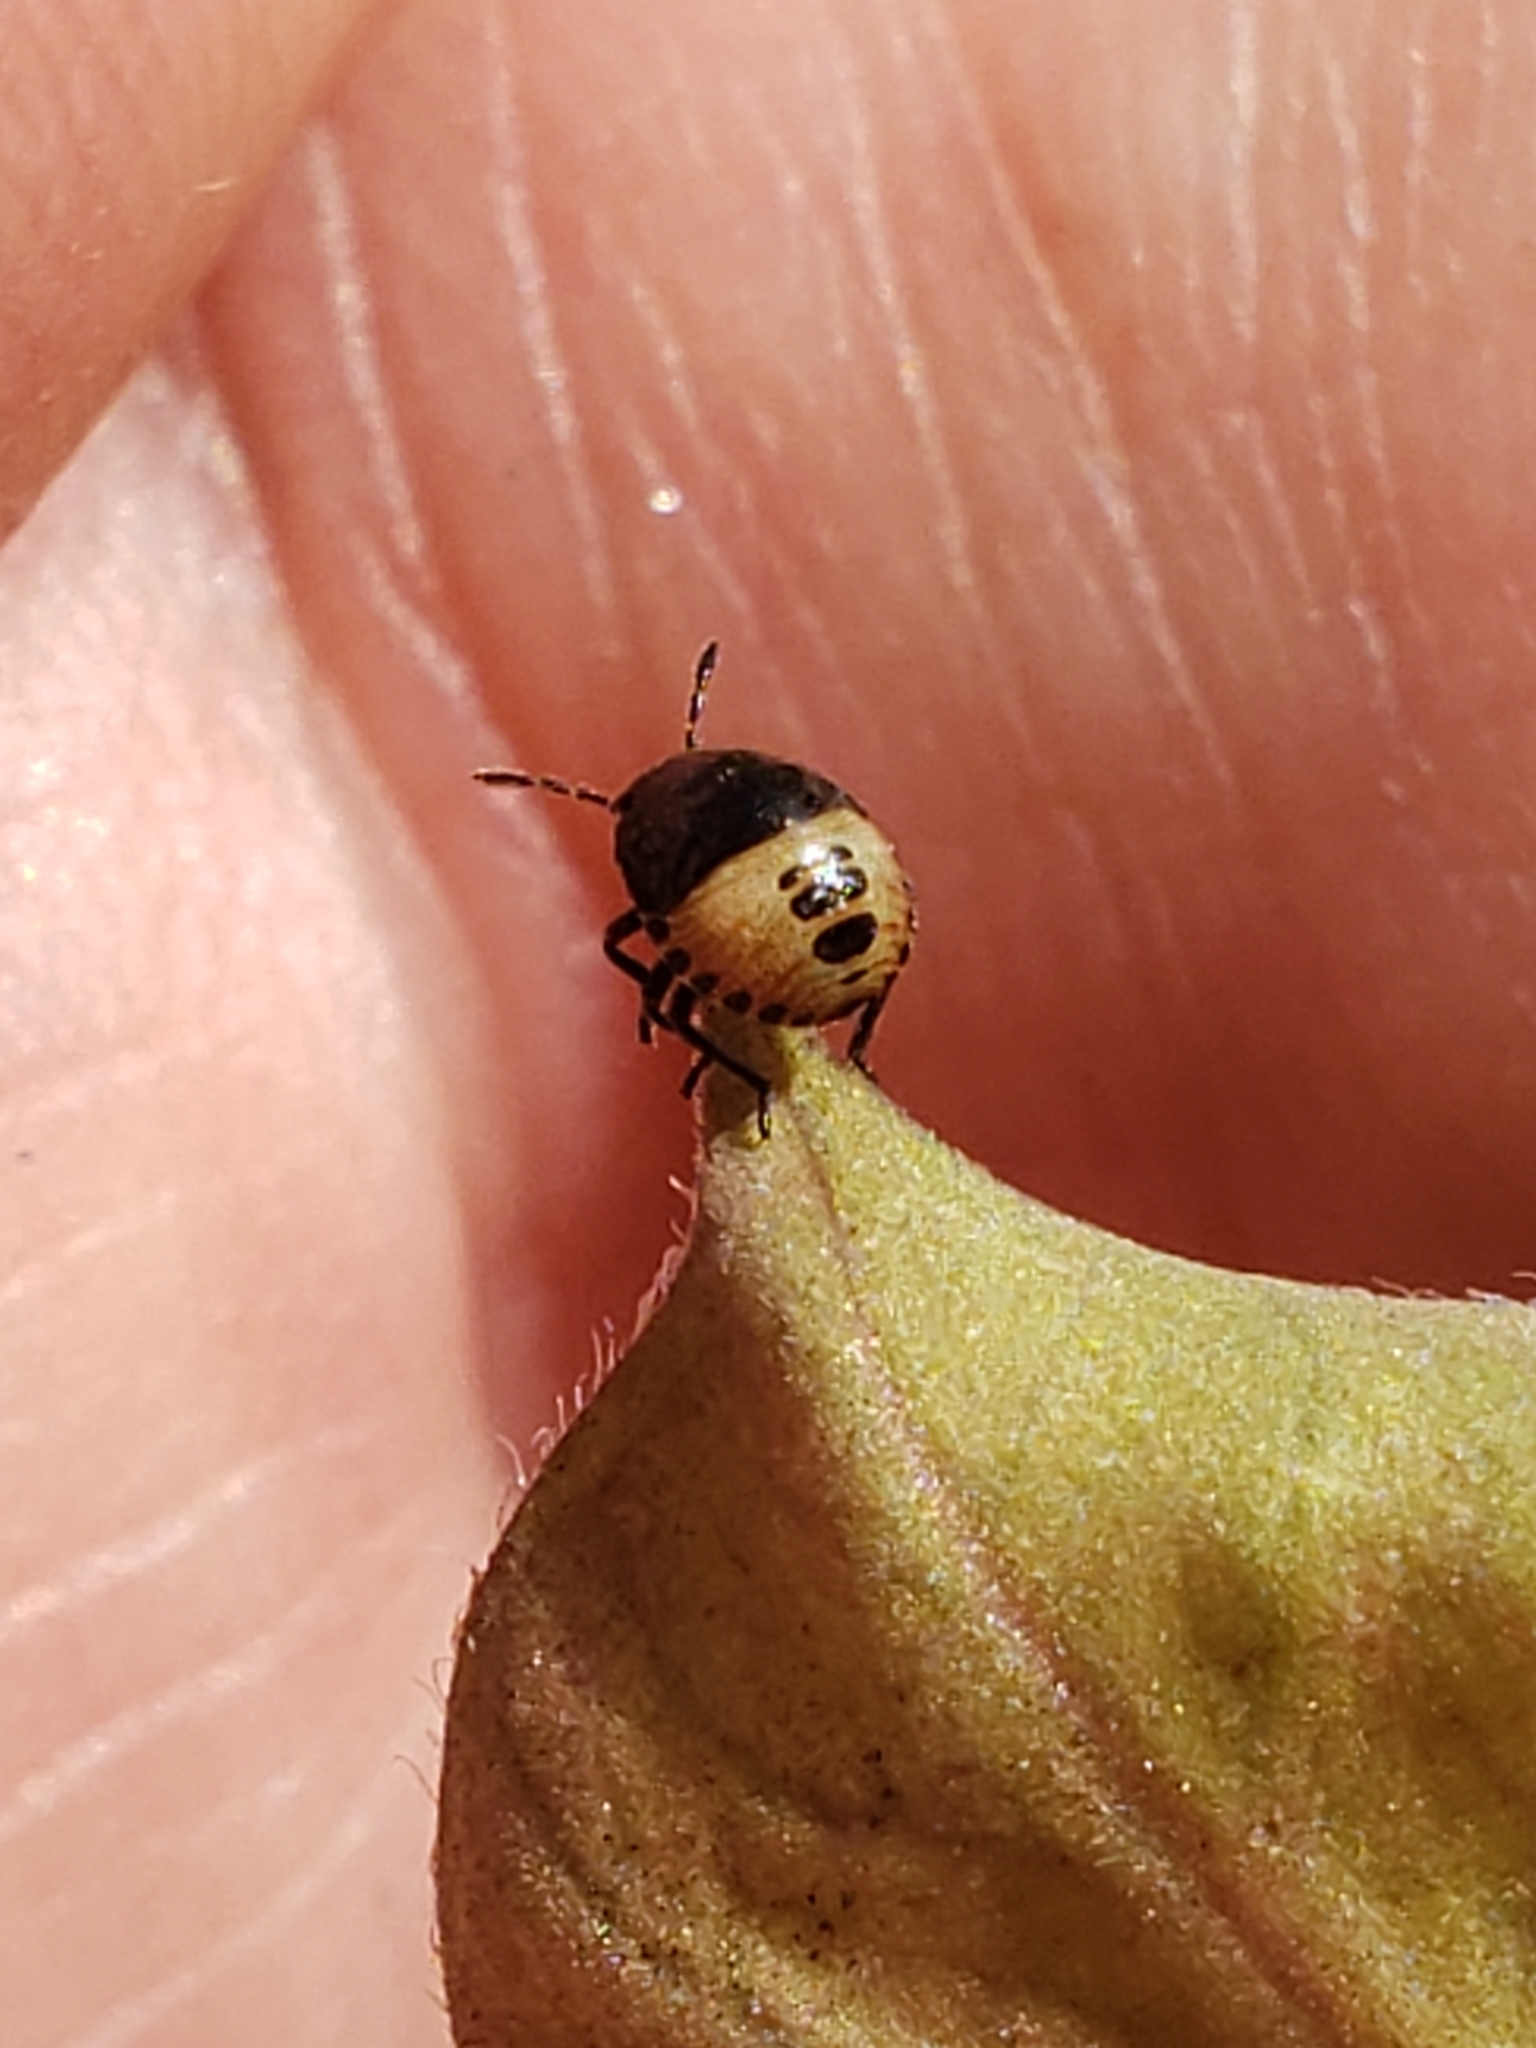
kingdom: Animalia
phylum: Arthropoda
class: Insecta
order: Hemiptera
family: Pentatomidae
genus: Cosmopepla
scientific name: Cosmopepla lintneriana
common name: Twice-stabbed stink bug
